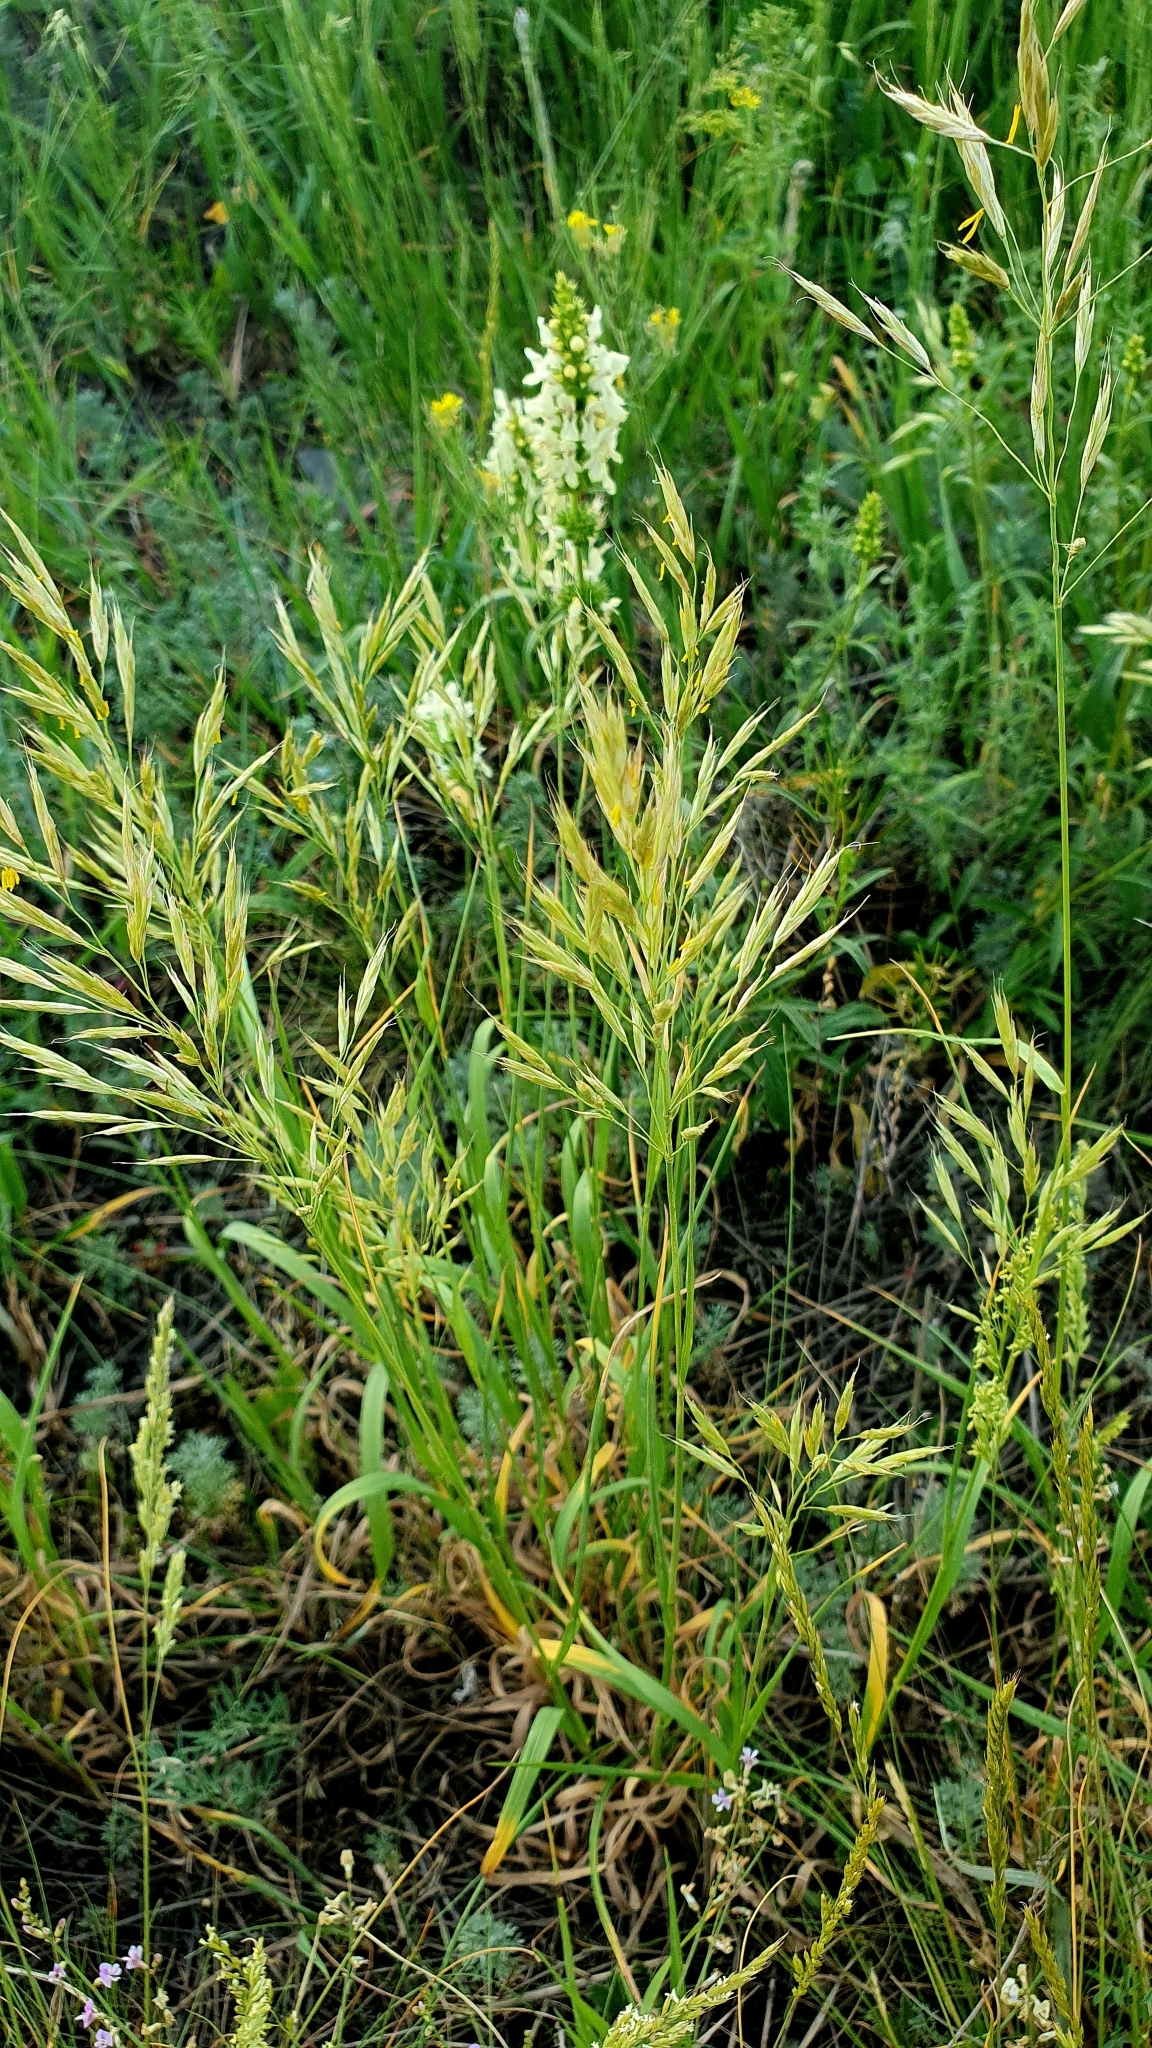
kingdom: Plantae
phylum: Tracheophyta
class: Liliopsida
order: Poales
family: Poaceae
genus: Bromus
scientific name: Bromus inermis
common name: Smooth brome
